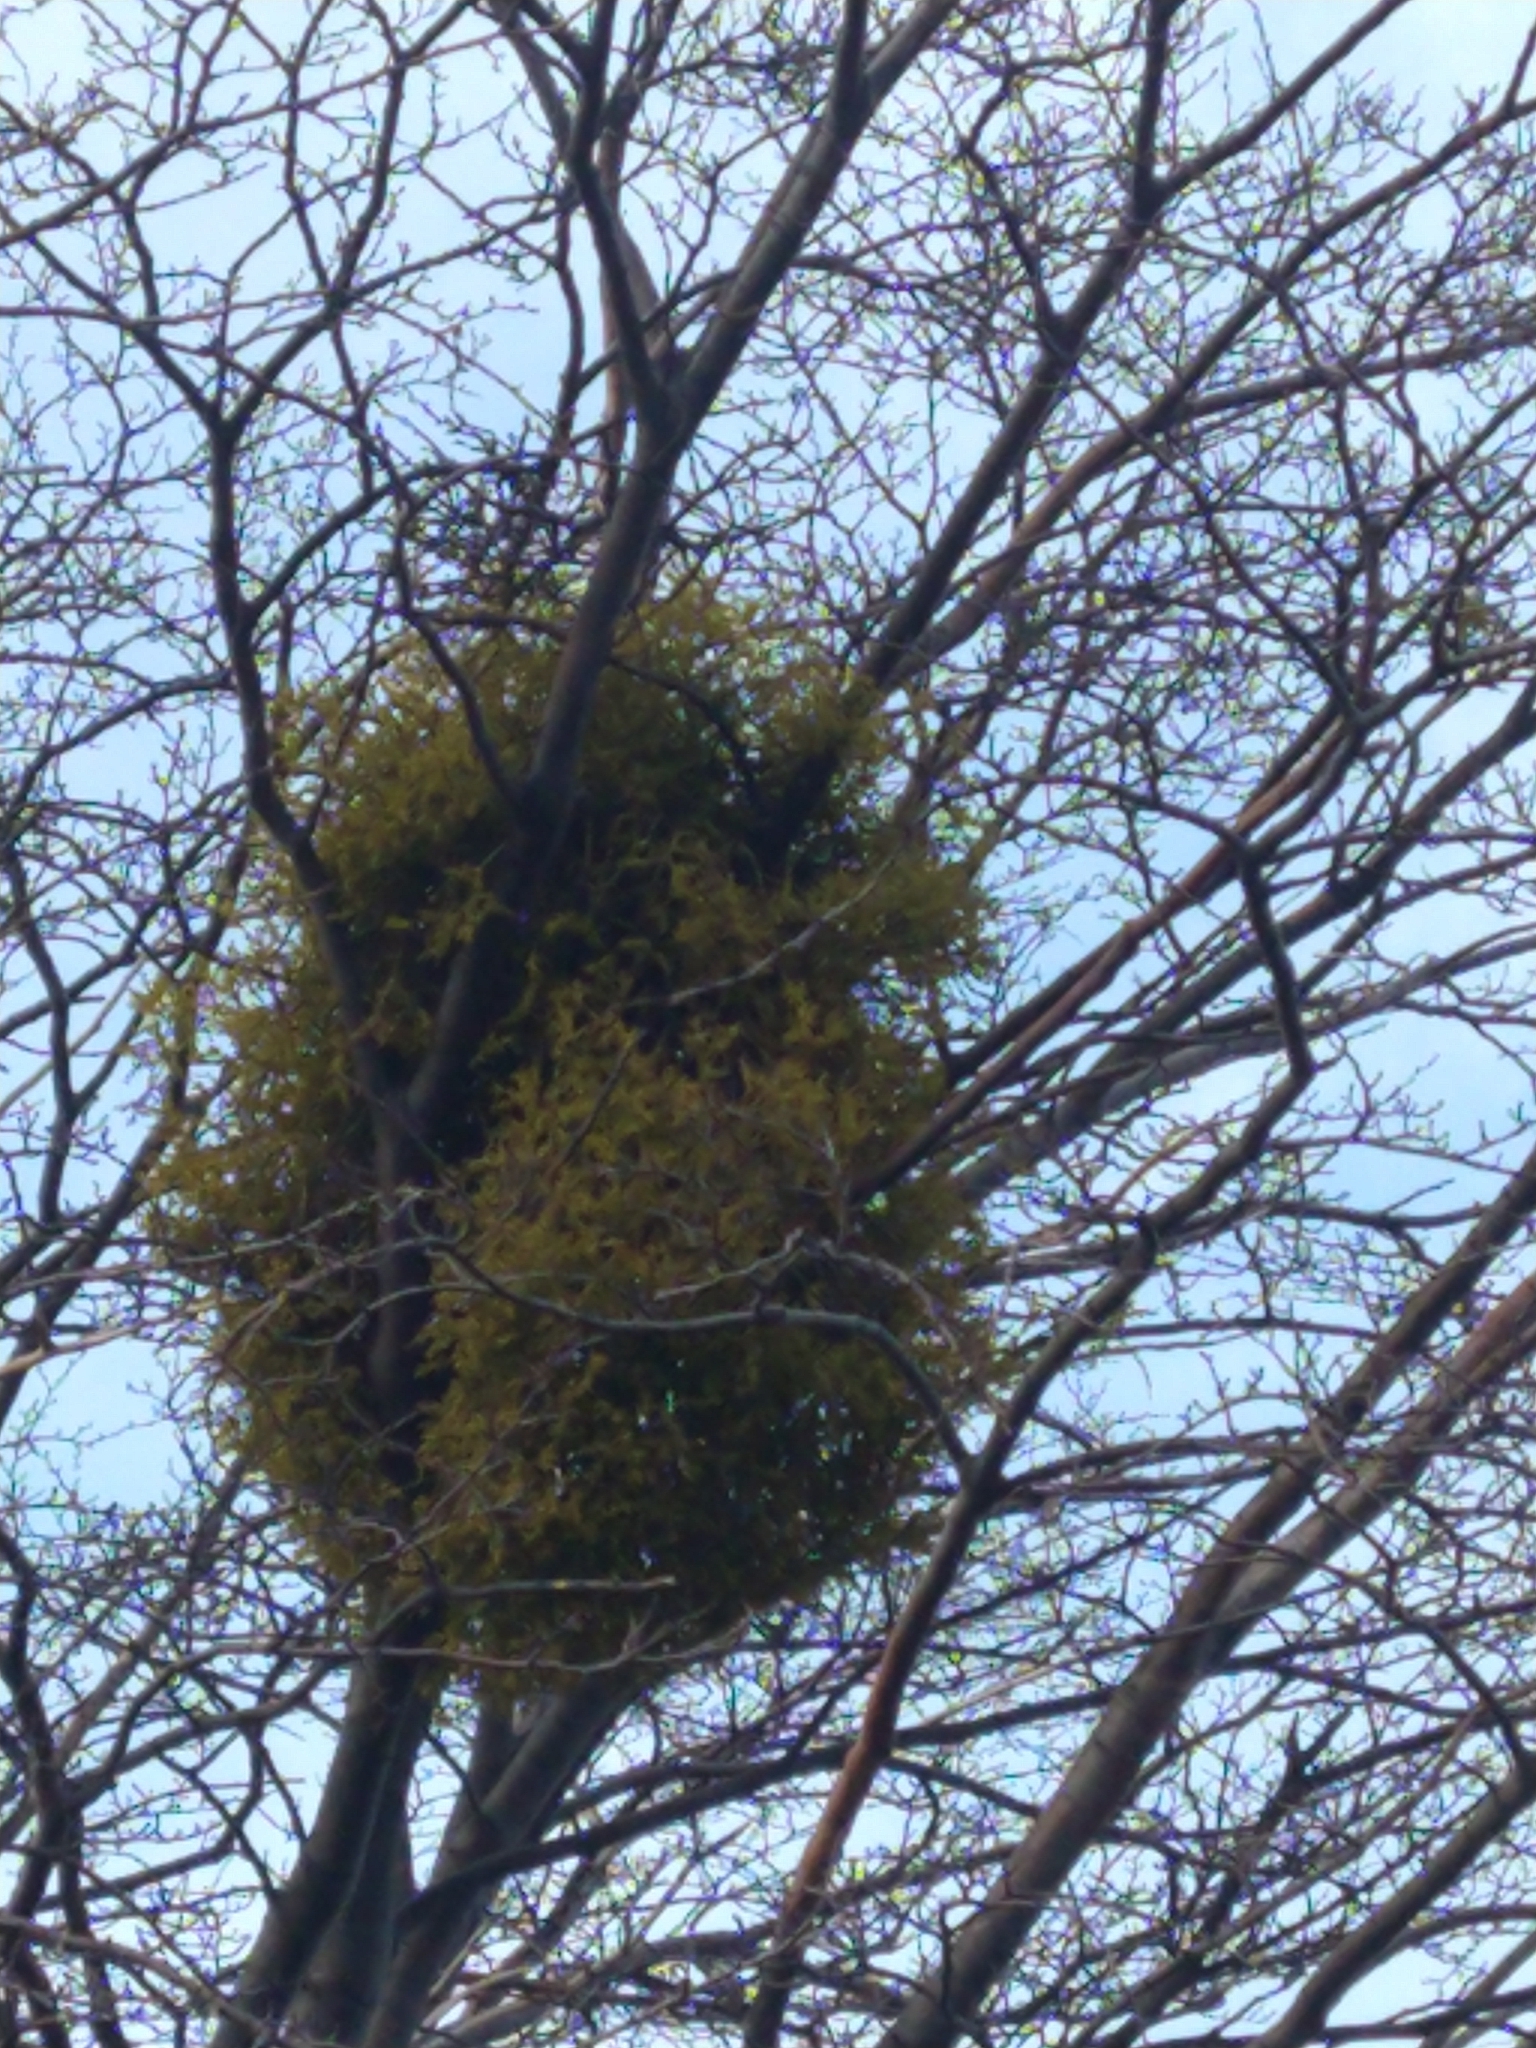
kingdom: Plantae
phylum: Tracheophyta
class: Magnoliopsida
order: Santalales
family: Misodendraceae
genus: Misodendrum
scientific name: Misodendrum punctulatum
